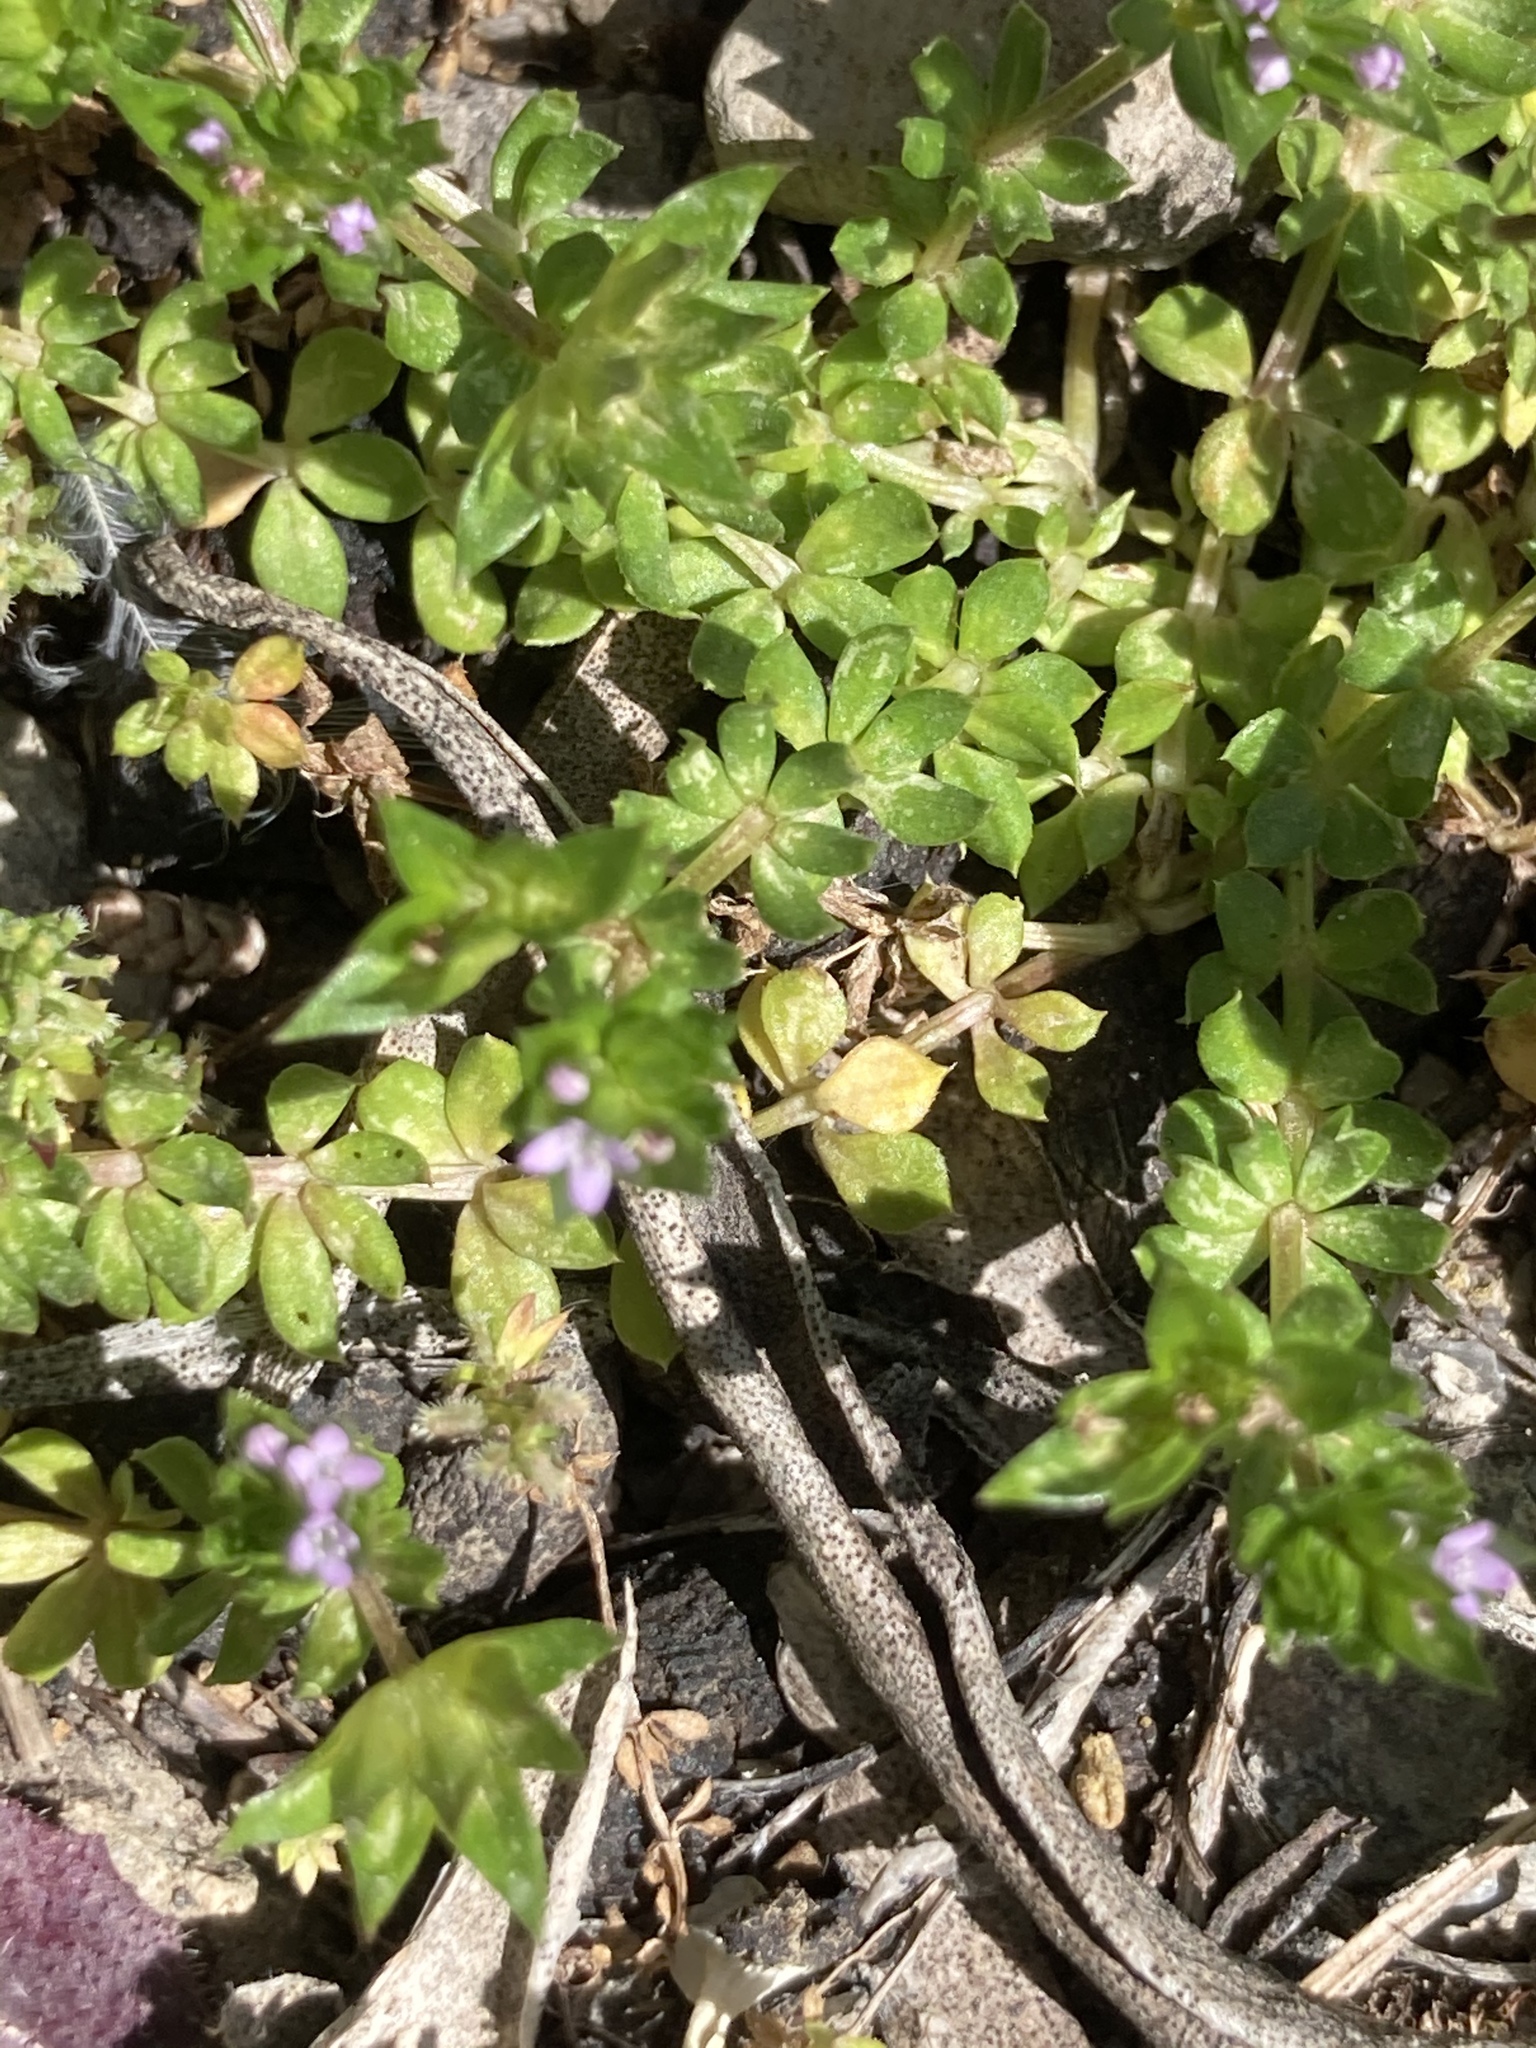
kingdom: Plantae
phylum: Tracheophyta
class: Magnoliopsida
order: Gentianales
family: Rubiaceae
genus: Sherardia
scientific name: Sherardia arvensis
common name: Field madder
